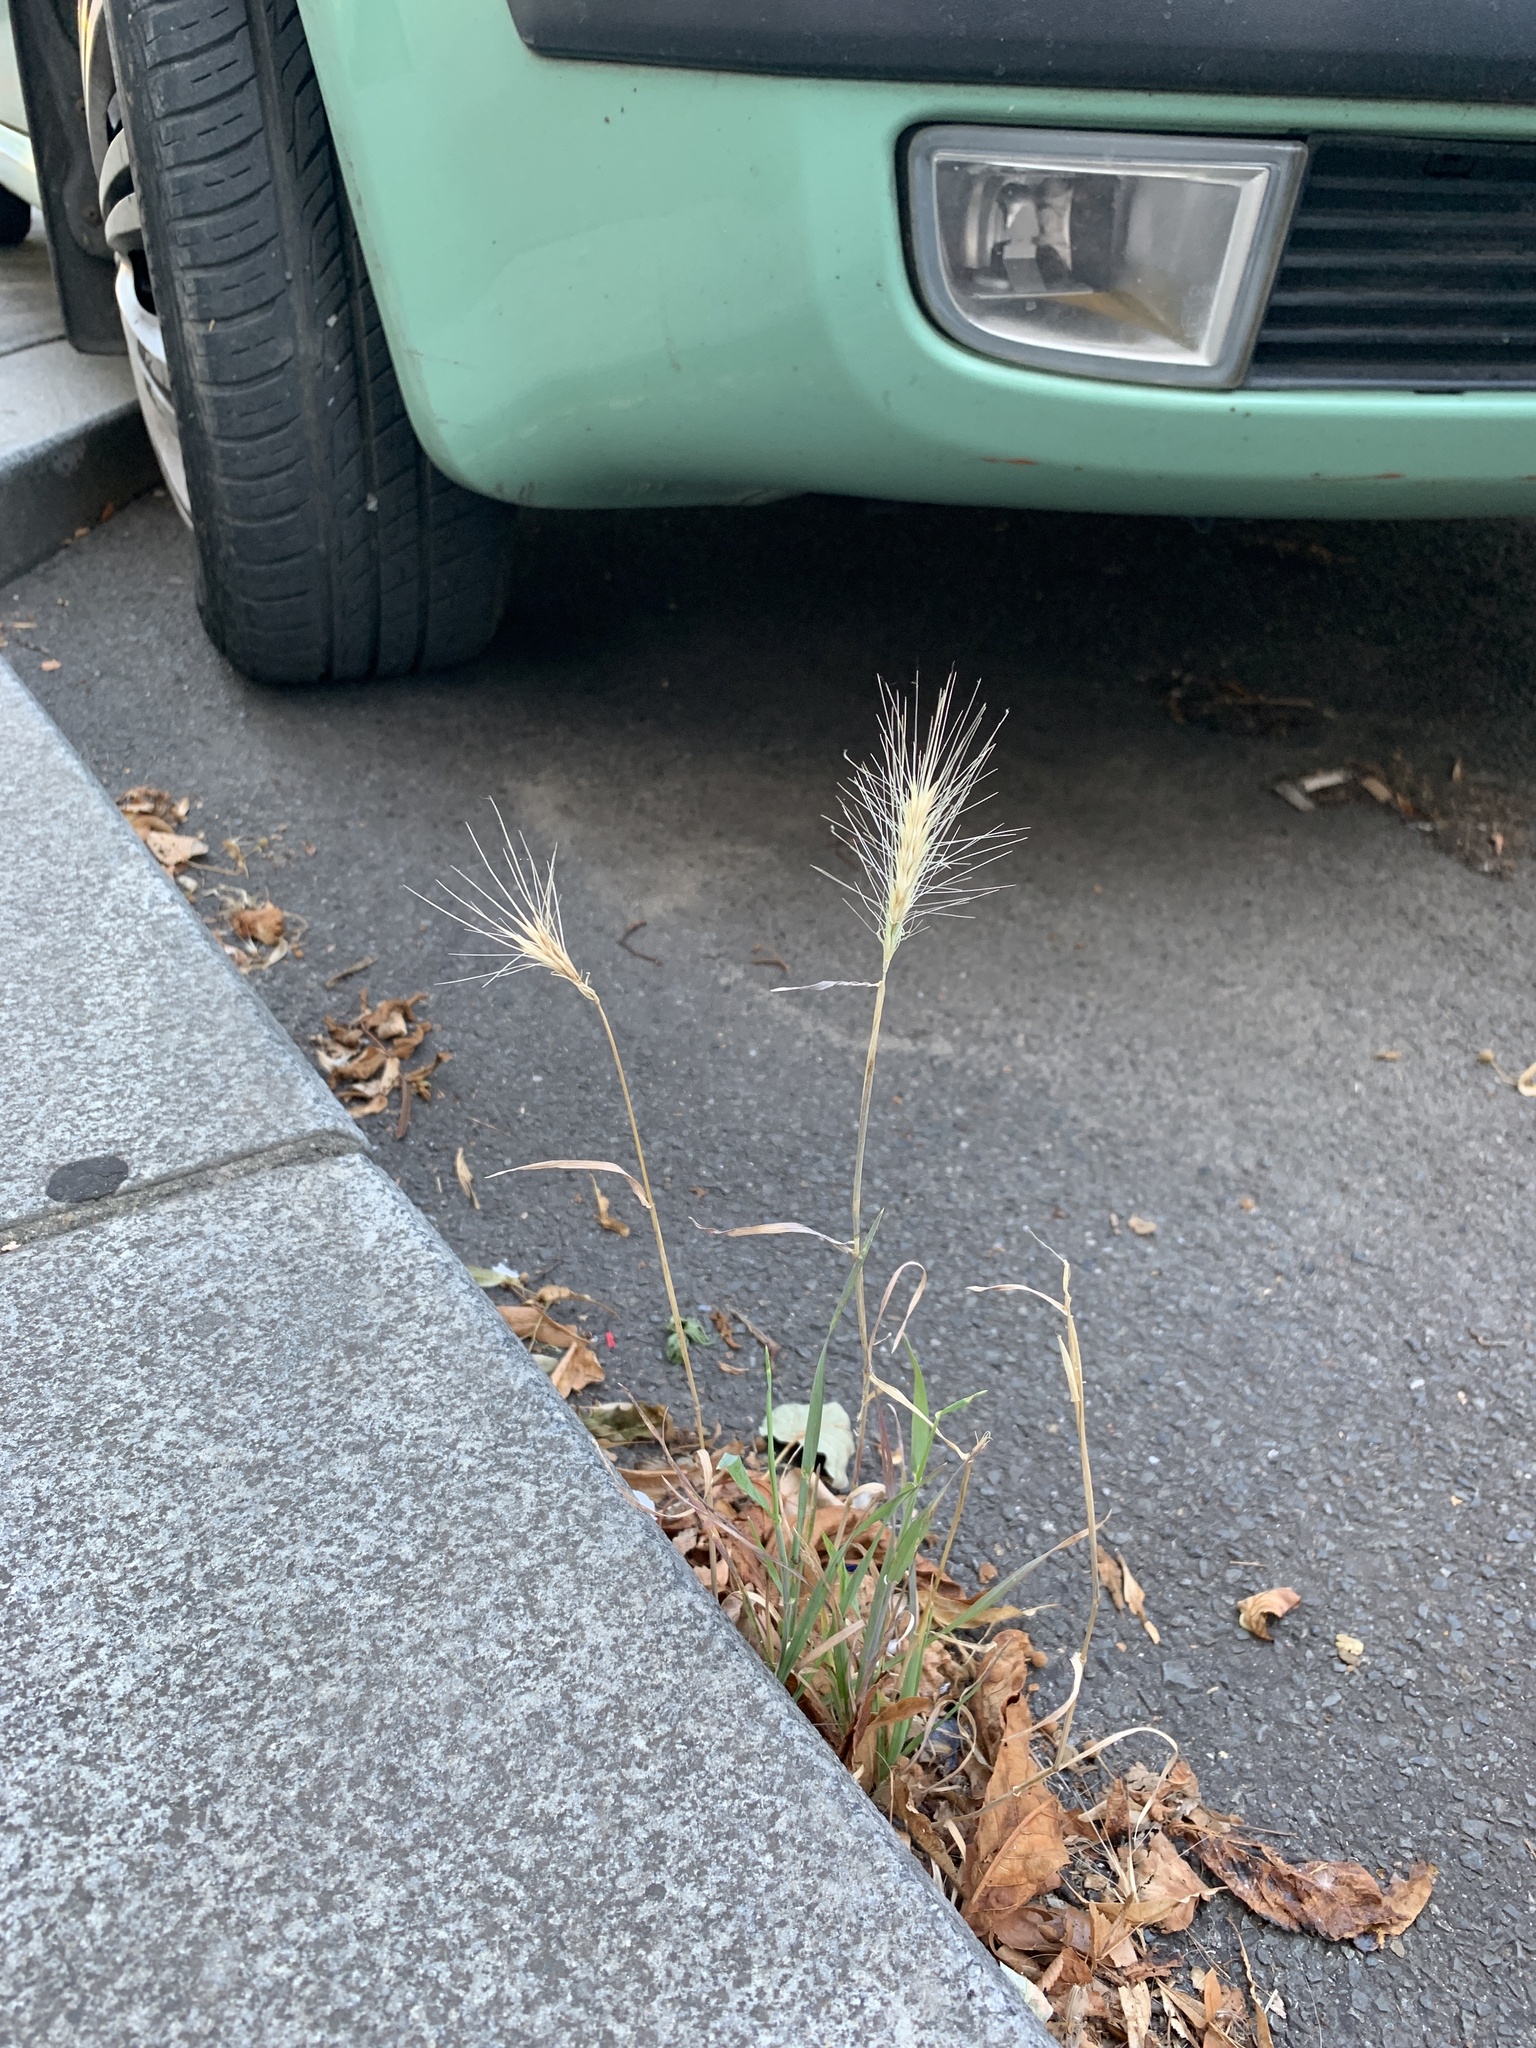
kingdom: Plantae
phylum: Tracheophyta
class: Liliopsida
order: Poales
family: Poaceae
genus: Hordeum
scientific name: Hordeum murinum
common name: Wall barley
